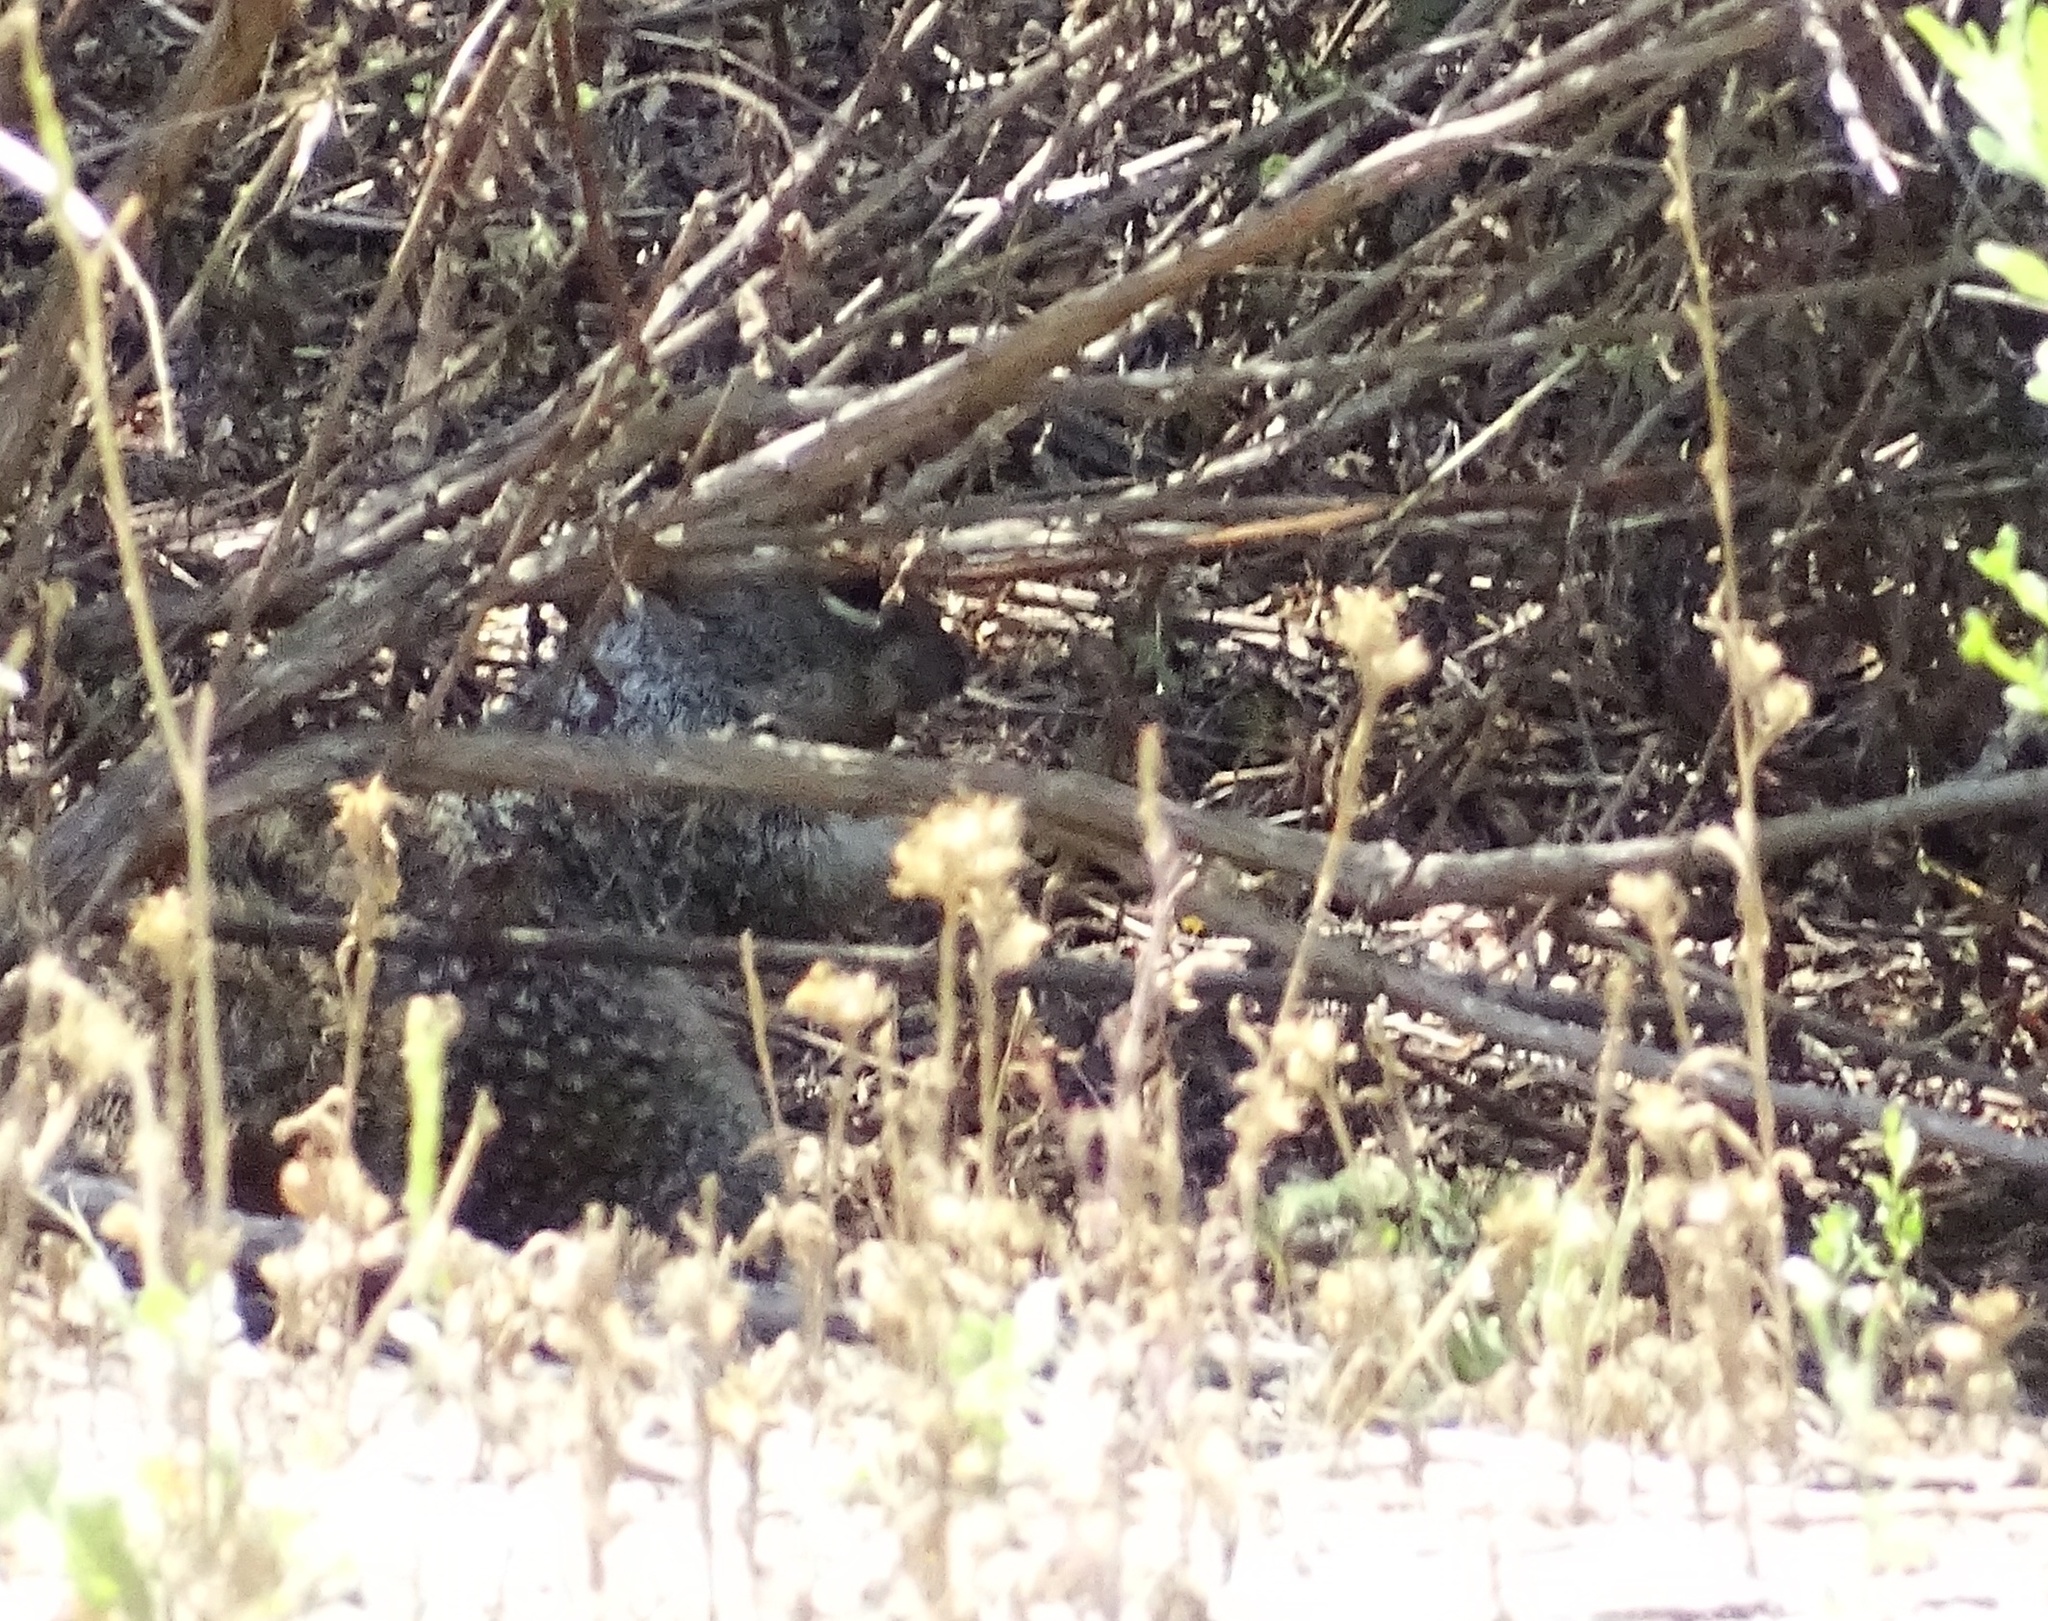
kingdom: Animalia
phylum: Chordata
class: Mammalia
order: Rodentia
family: Sciuridae
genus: Otospermophilus
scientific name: Otospermophilus beecheyi
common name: California ground squirrel
